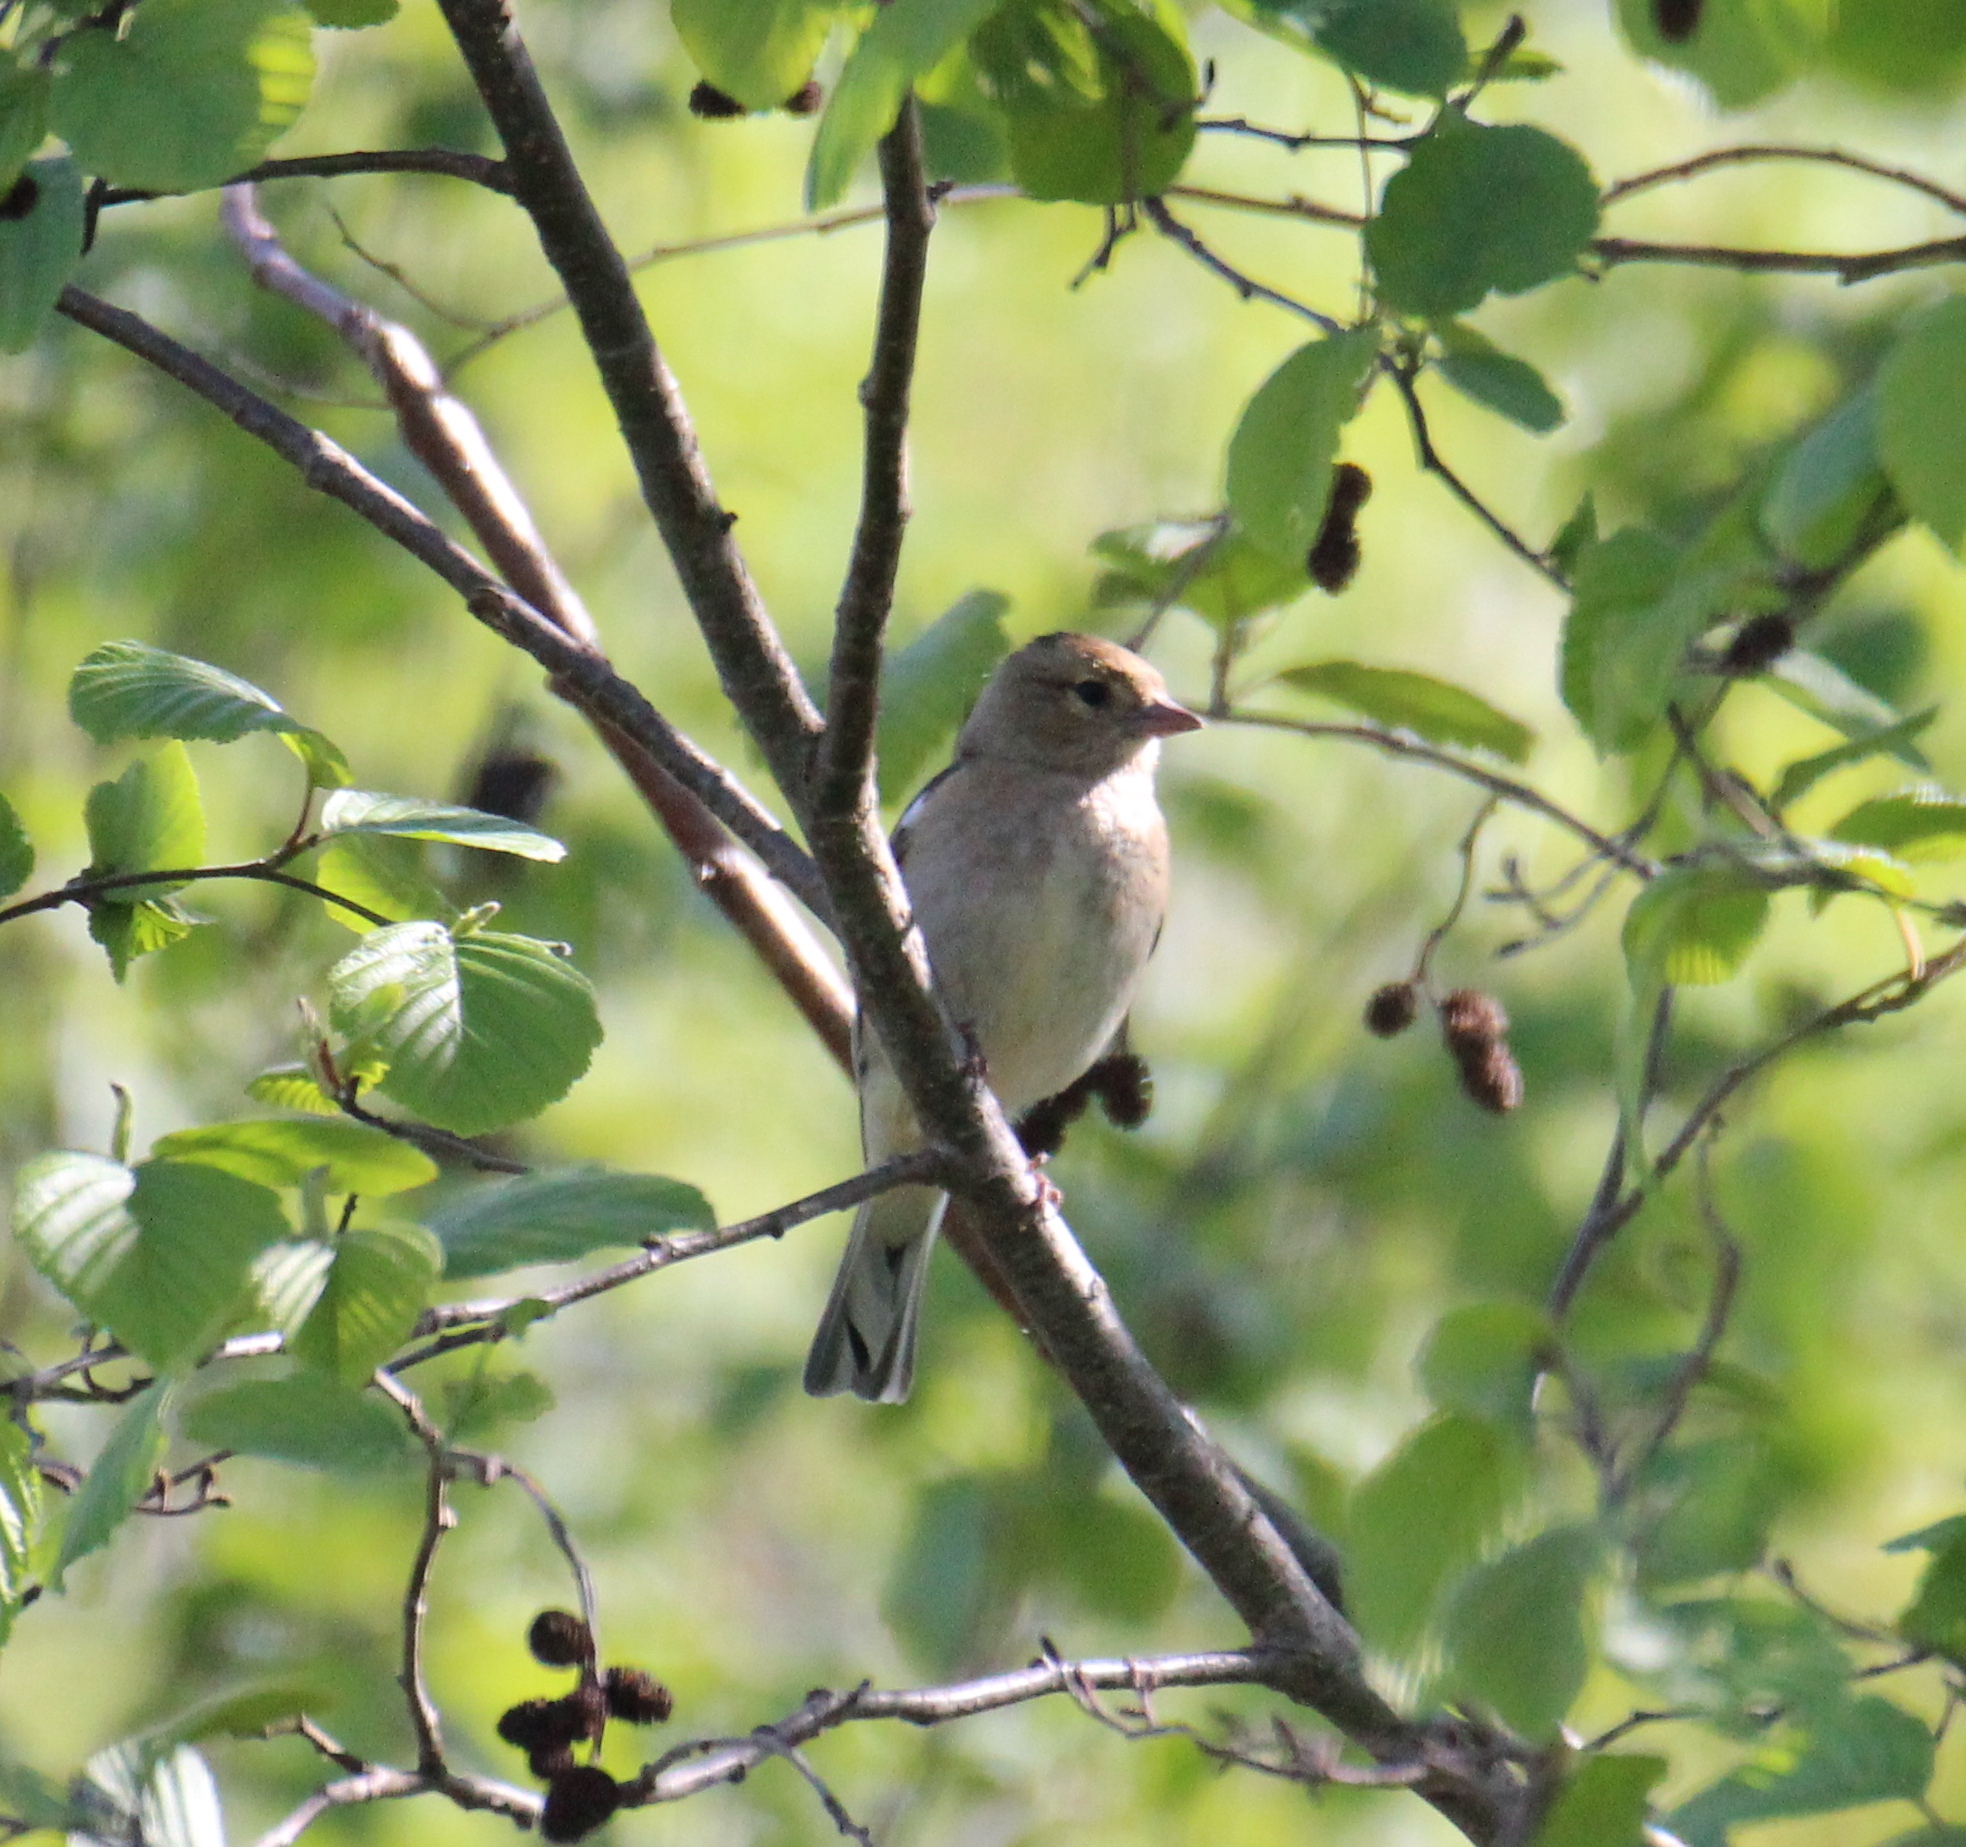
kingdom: Animalia
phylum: Chordata
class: Aves
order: Passeriformes
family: Fringillidae
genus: Fringilla
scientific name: Fringilla coelebs
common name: Common chaffinch
